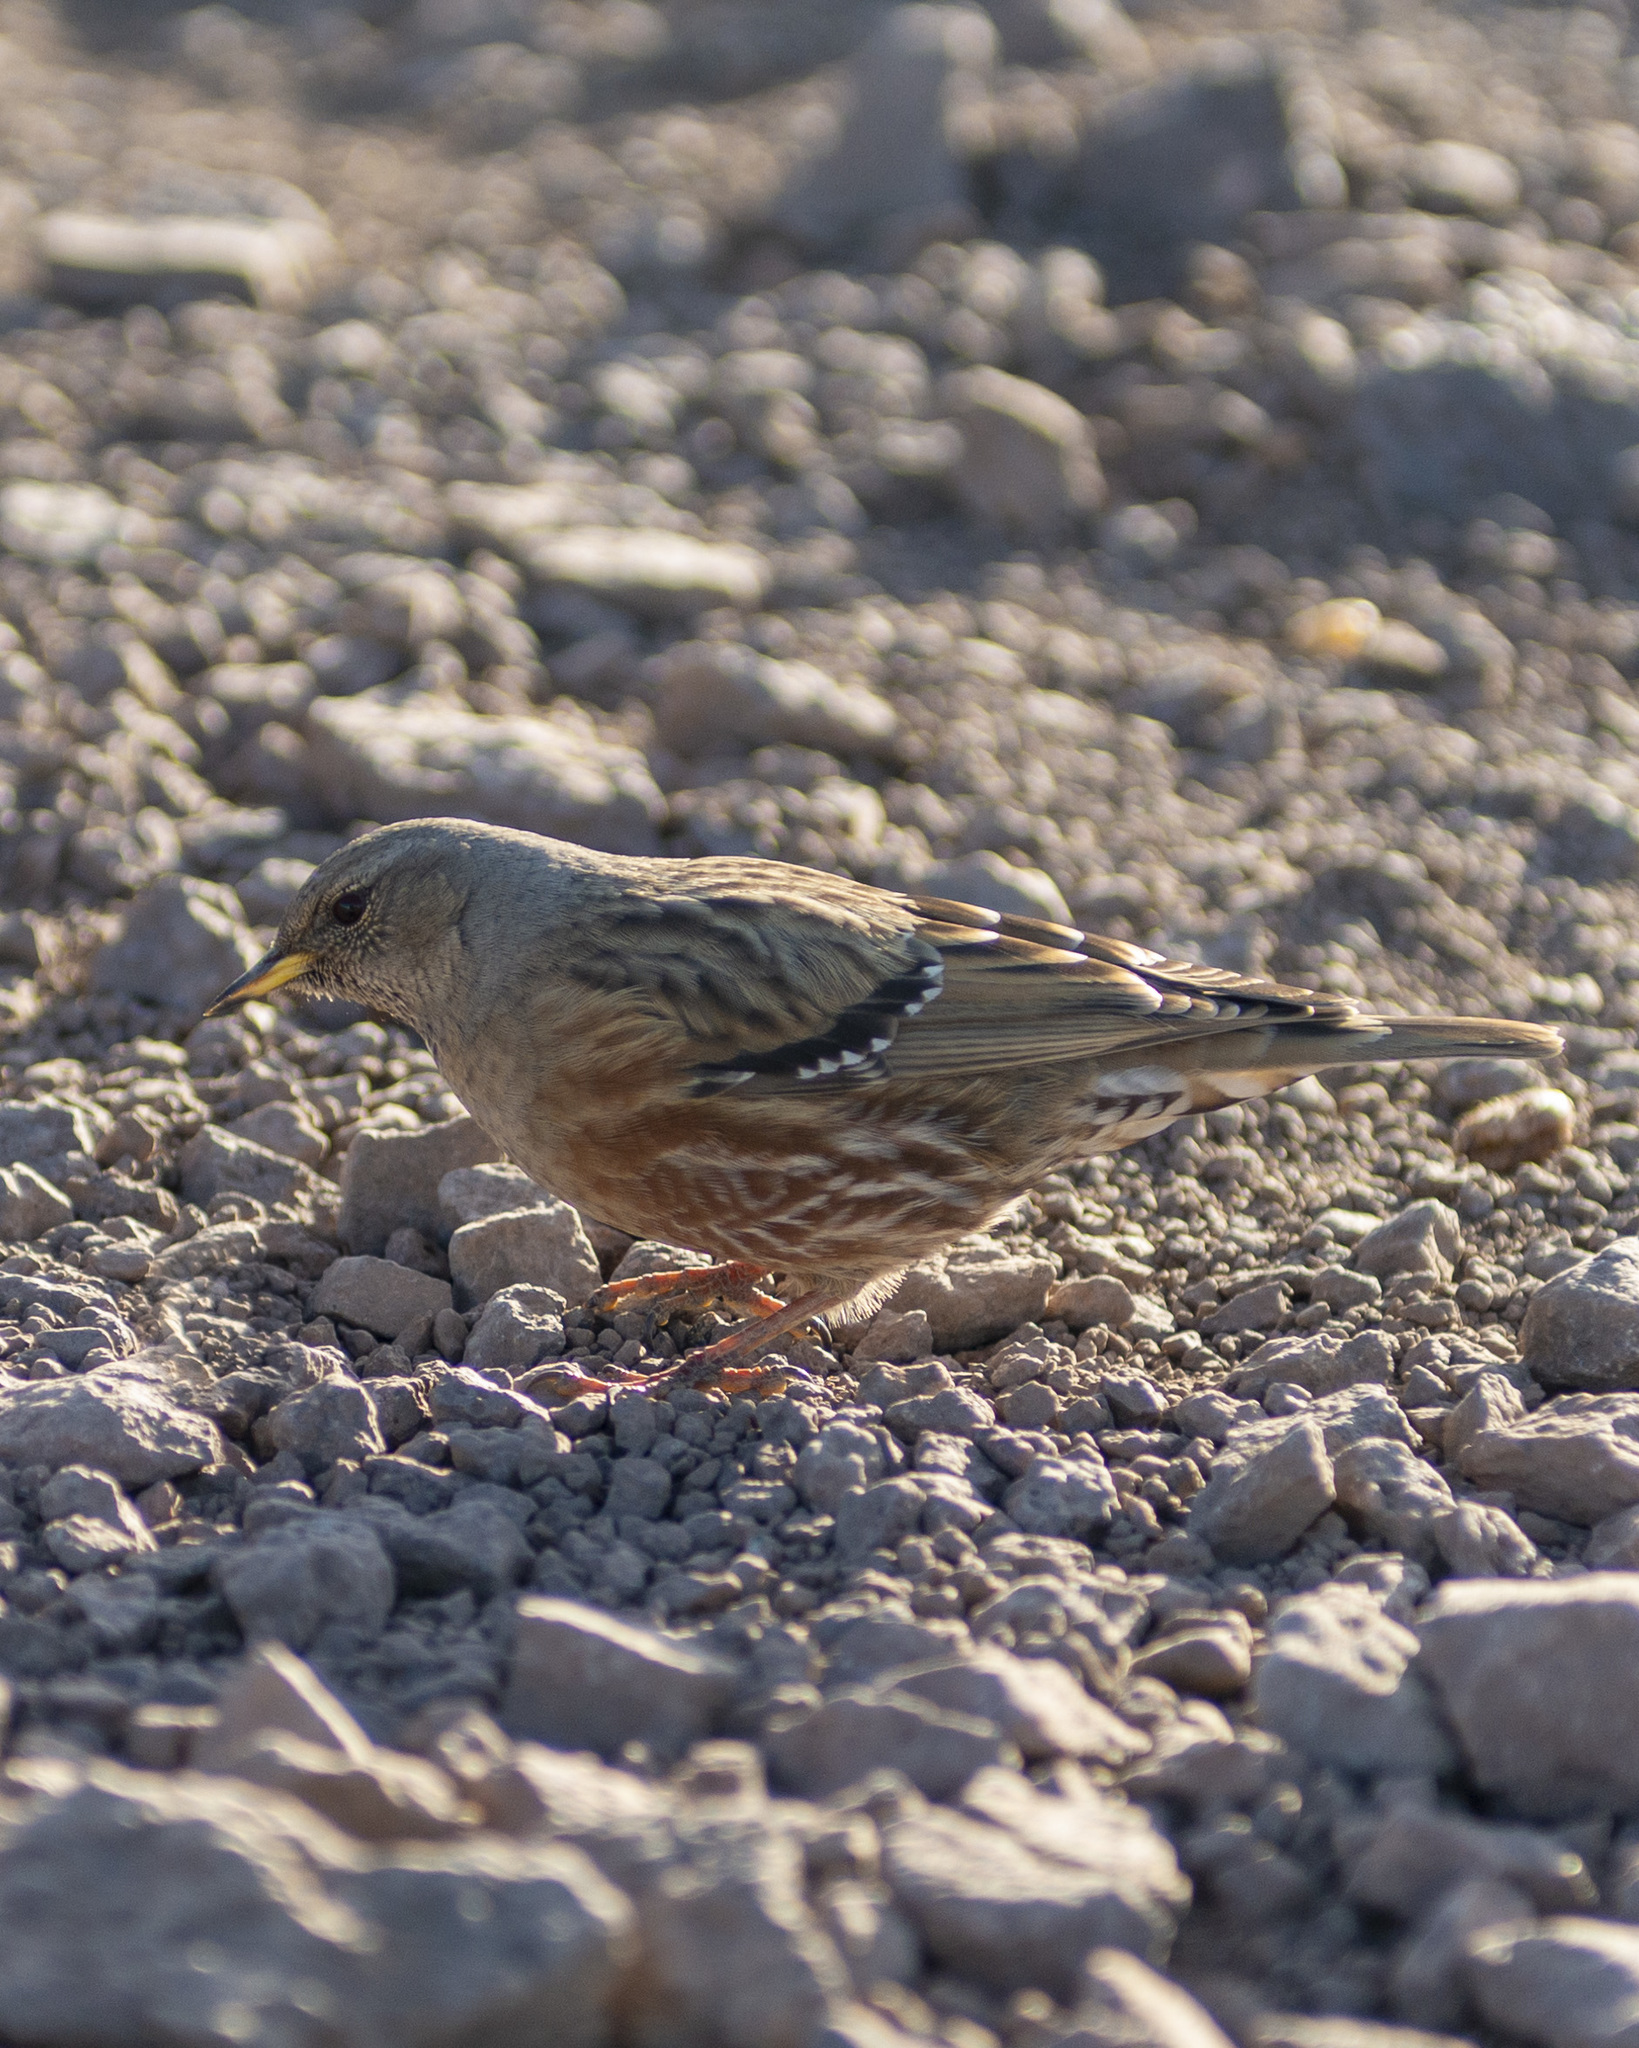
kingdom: Animalia
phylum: Chordata
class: Aves
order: Passeriformes
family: Prunellidae
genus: Prunella
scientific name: Prunella collaris
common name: Alpine accentor
